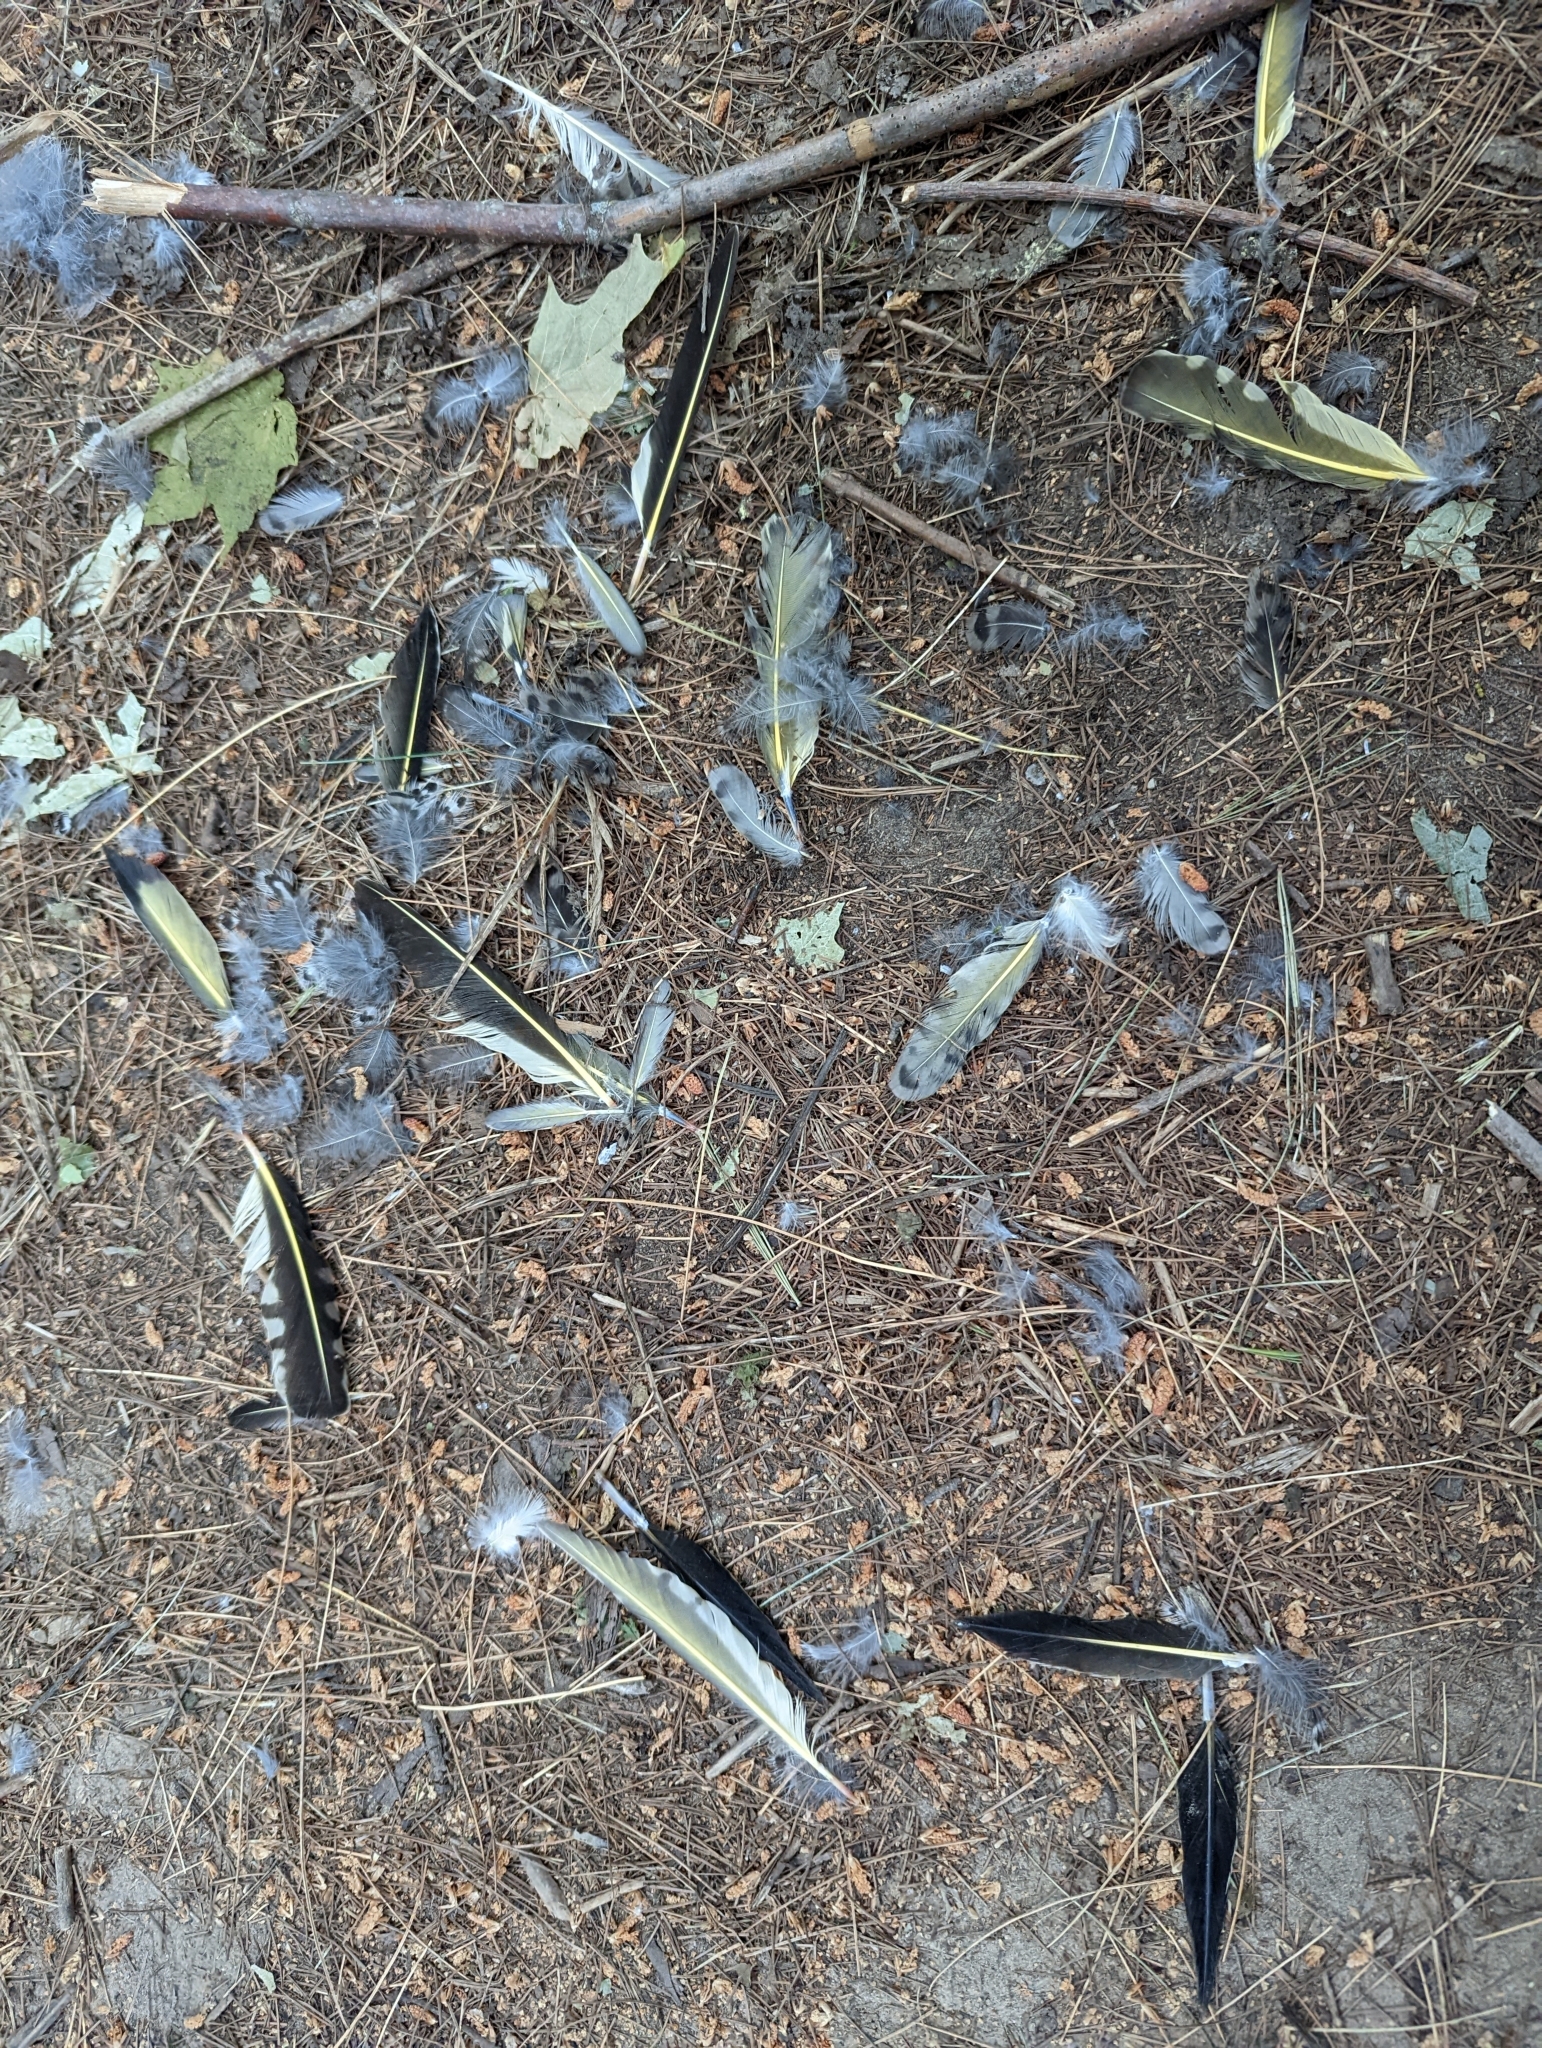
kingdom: Animalia
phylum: Chordata
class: Aves
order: Piciformes
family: Picidae
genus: Colaptes
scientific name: Colaptes auratus
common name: Northern flicker
